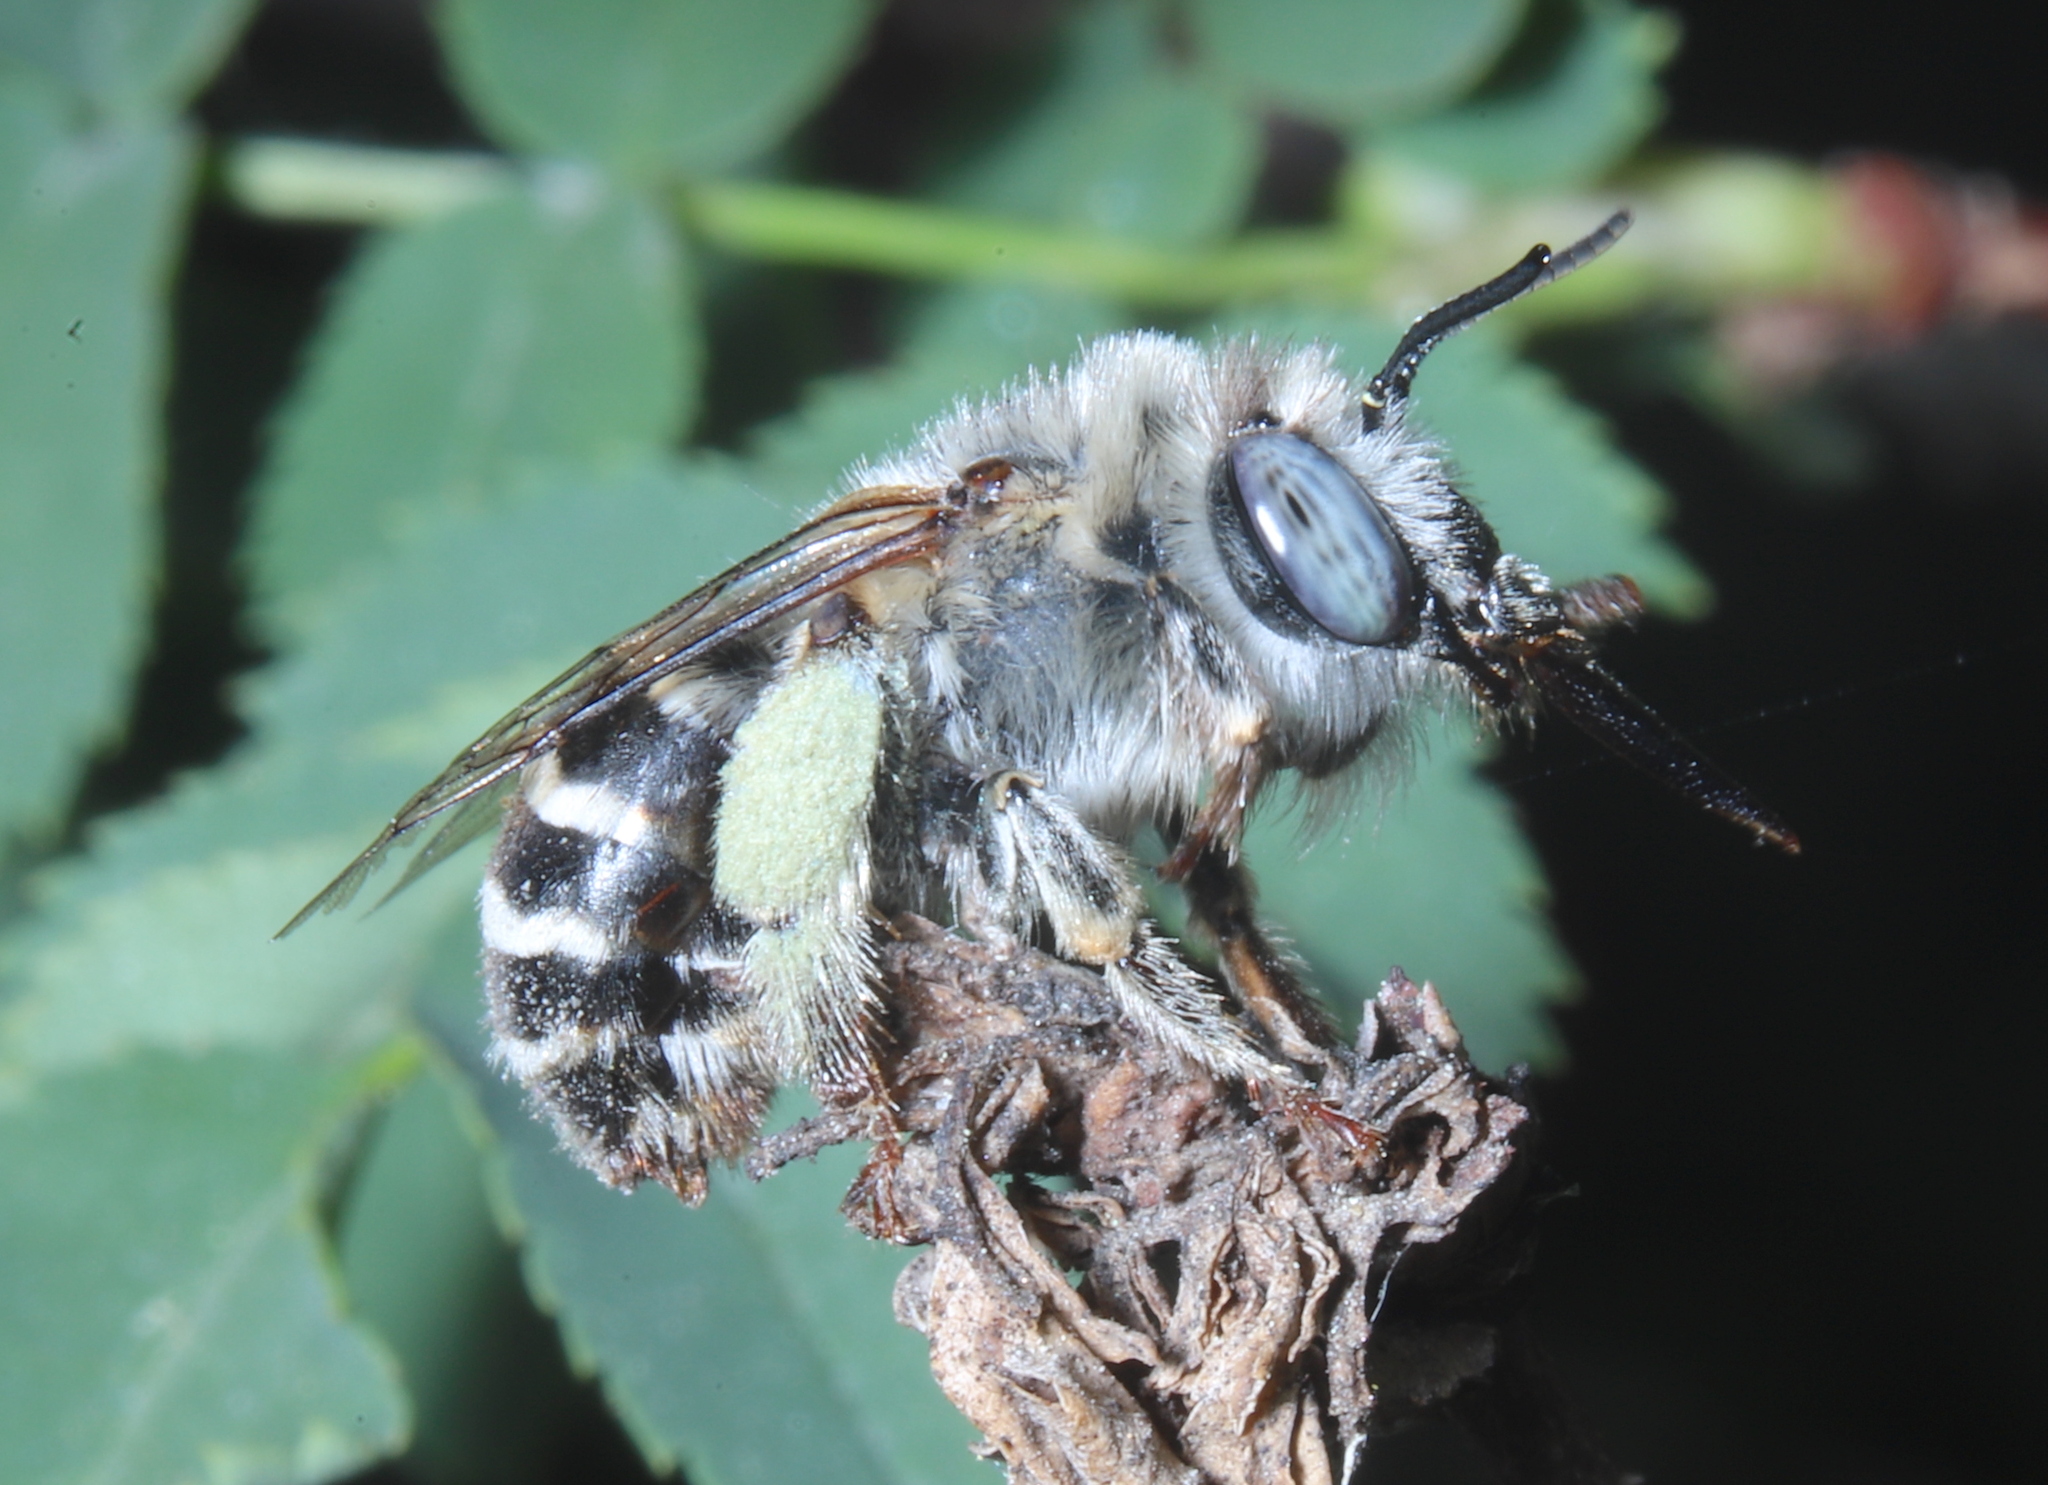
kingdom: Animalia
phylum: Arthropoda
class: Insecta
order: Hymenoptera
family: Apidae
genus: Anthophora
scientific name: Anthophora urbana
